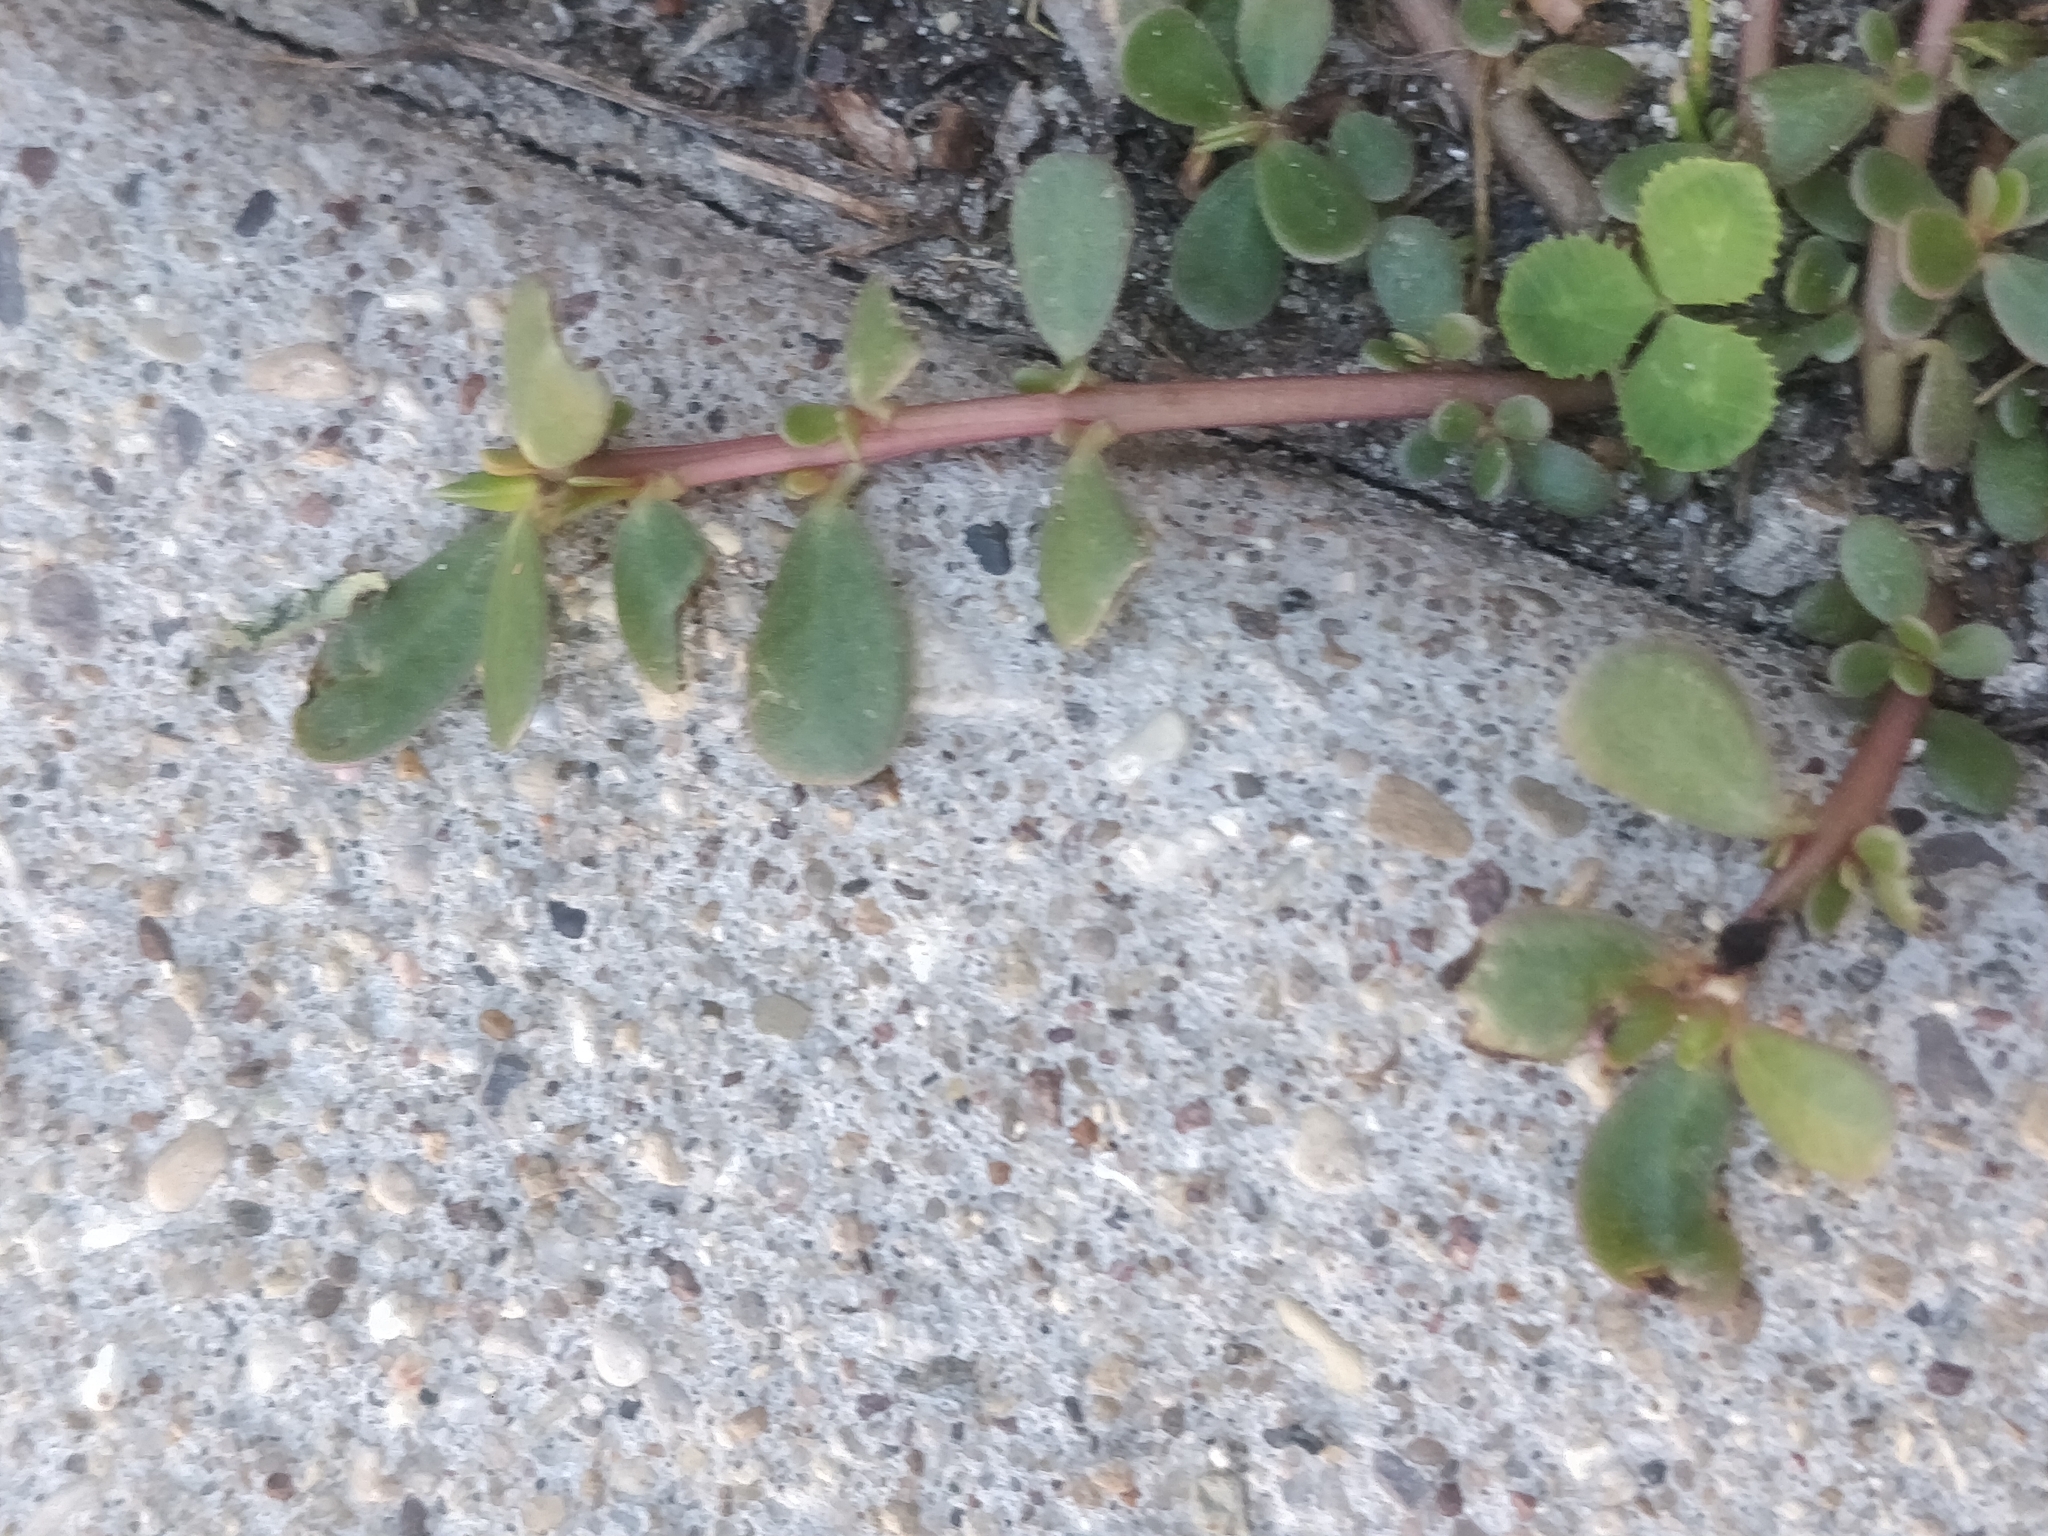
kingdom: Plantae
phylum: Tracheophyta
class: Magnoliopsida
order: Caryophyllales
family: Portulacaceae
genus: Portulaca
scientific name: Portulaca oleracea
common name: Common purslane
